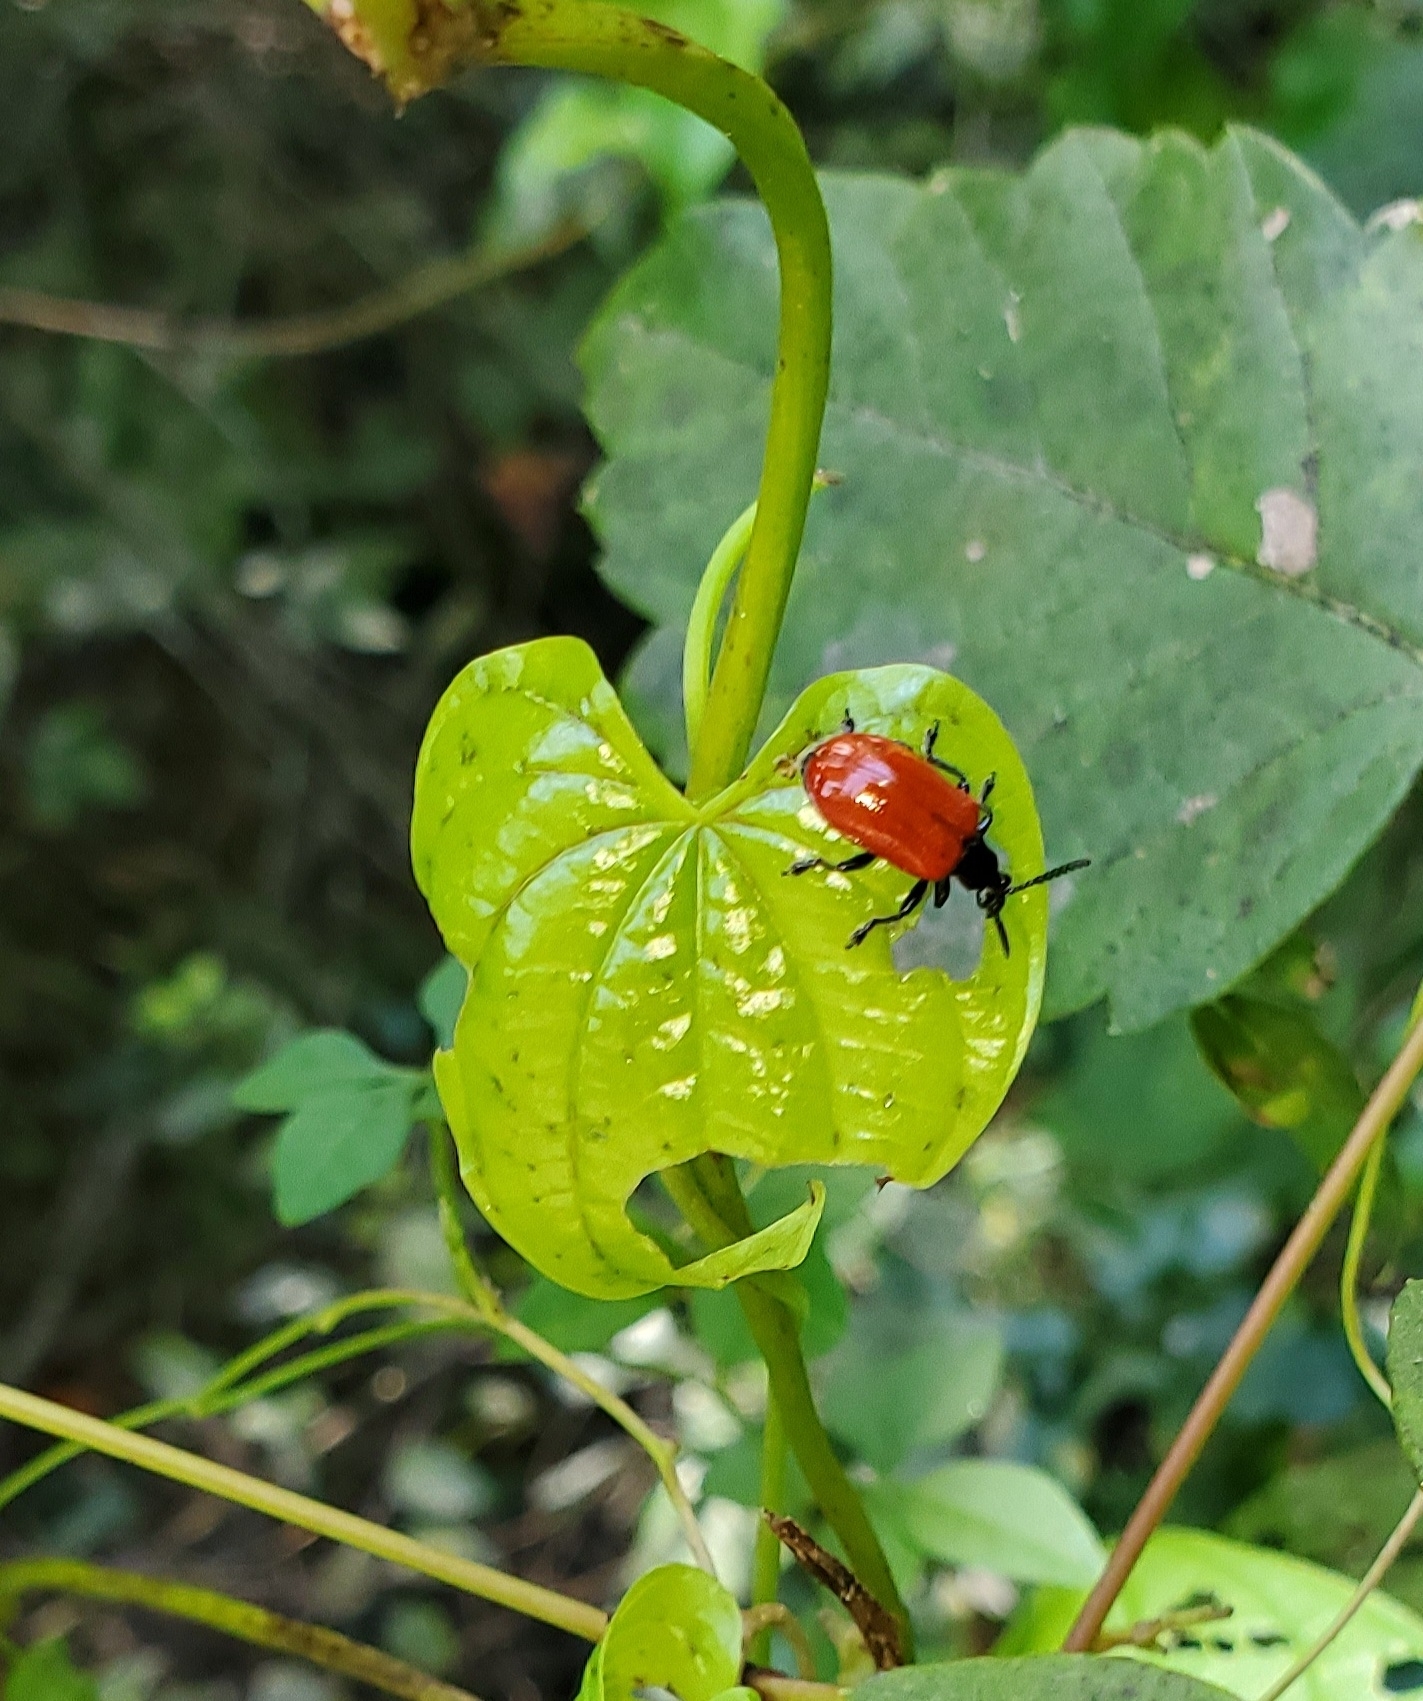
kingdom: Animalia
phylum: Arthropoda
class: Insecta
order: Coleoptera
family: Chrysomelidae
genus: Lilioceris
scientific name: Lilioceris cheni
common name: Leaf beetle
